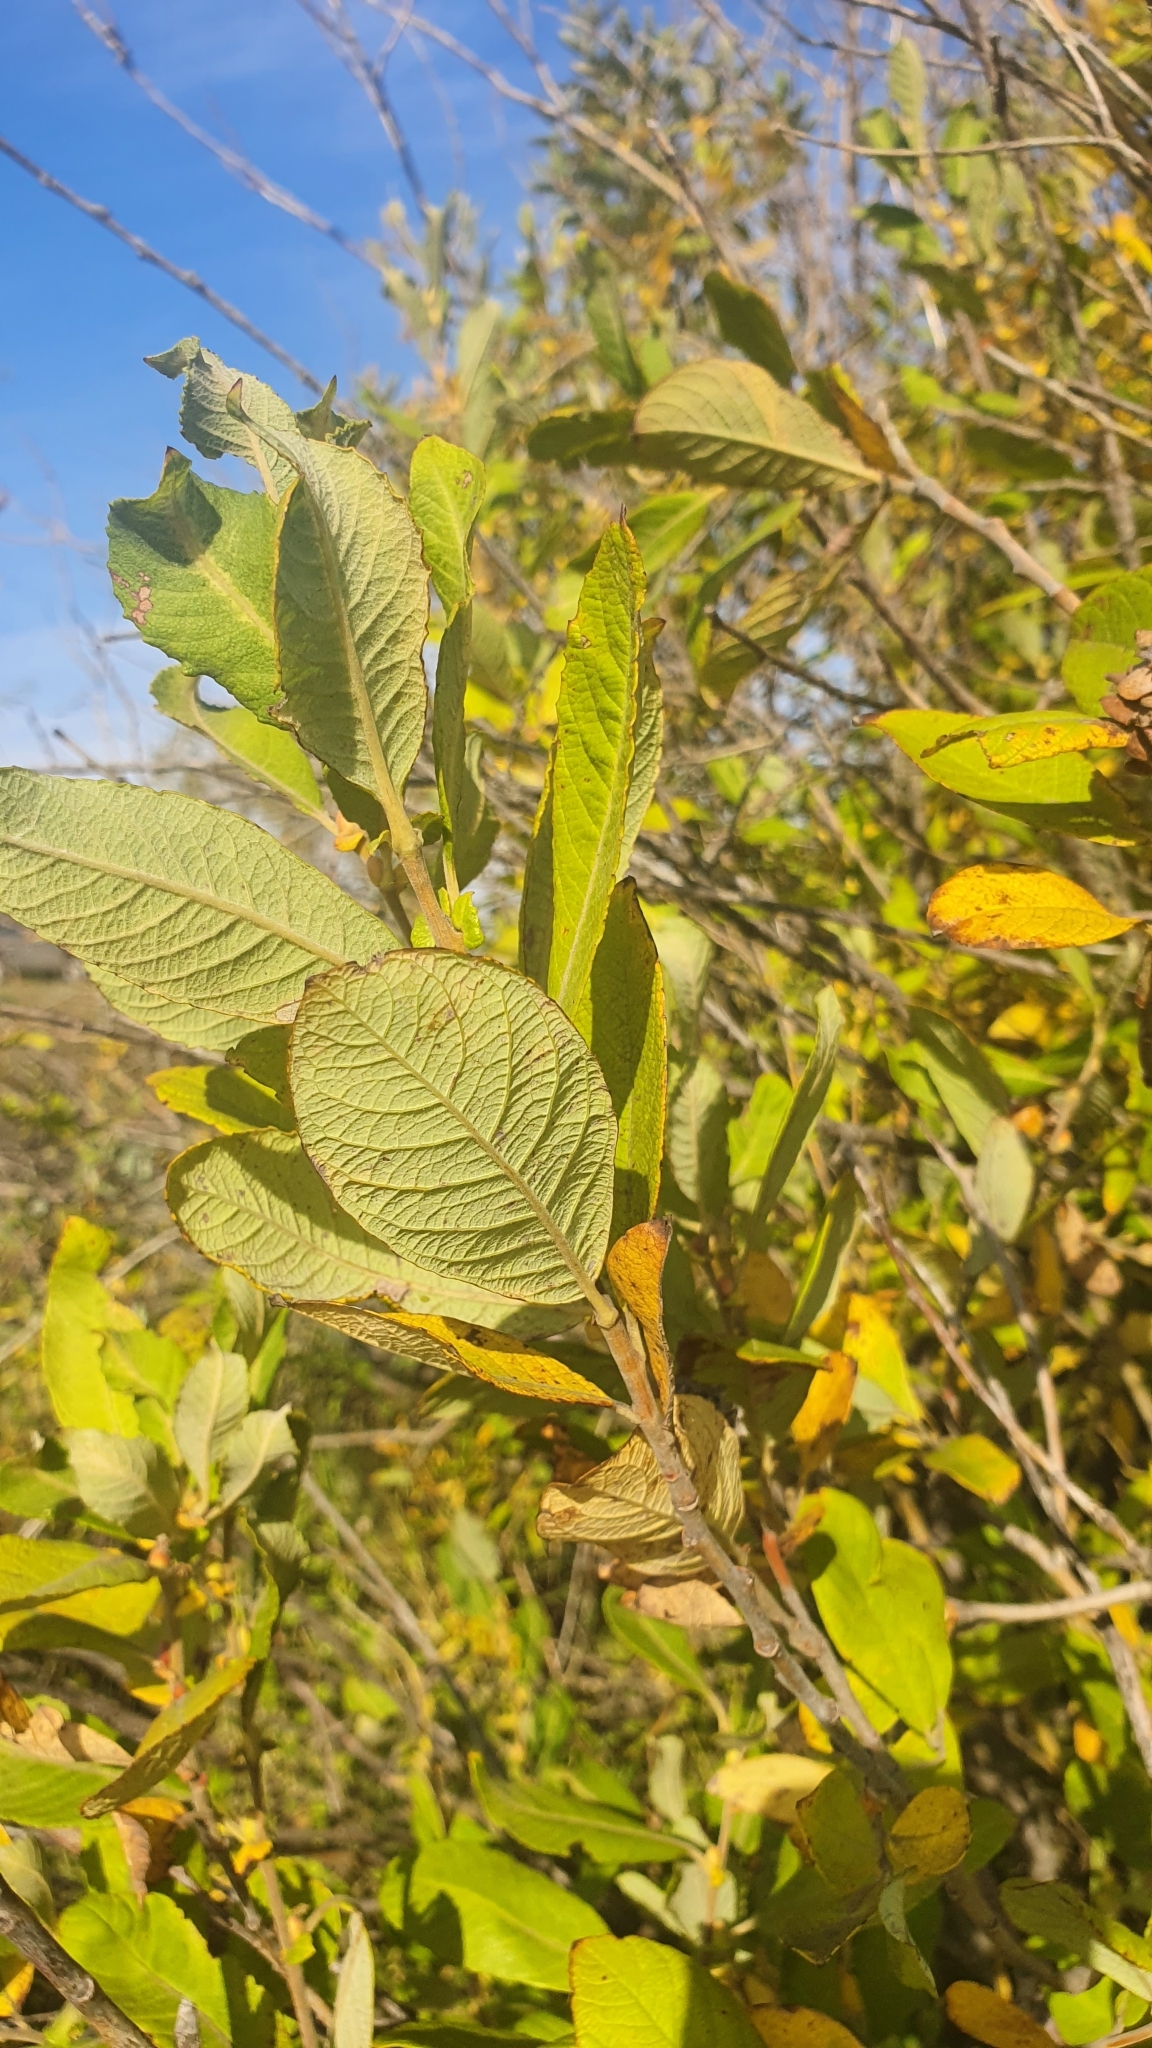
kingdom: Plantae
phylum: Tracheophyta
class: Magnoliopsida
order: Malpighiales
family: Salicaceae
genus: Salix
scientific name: Salix cinerea
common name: Common sallow
